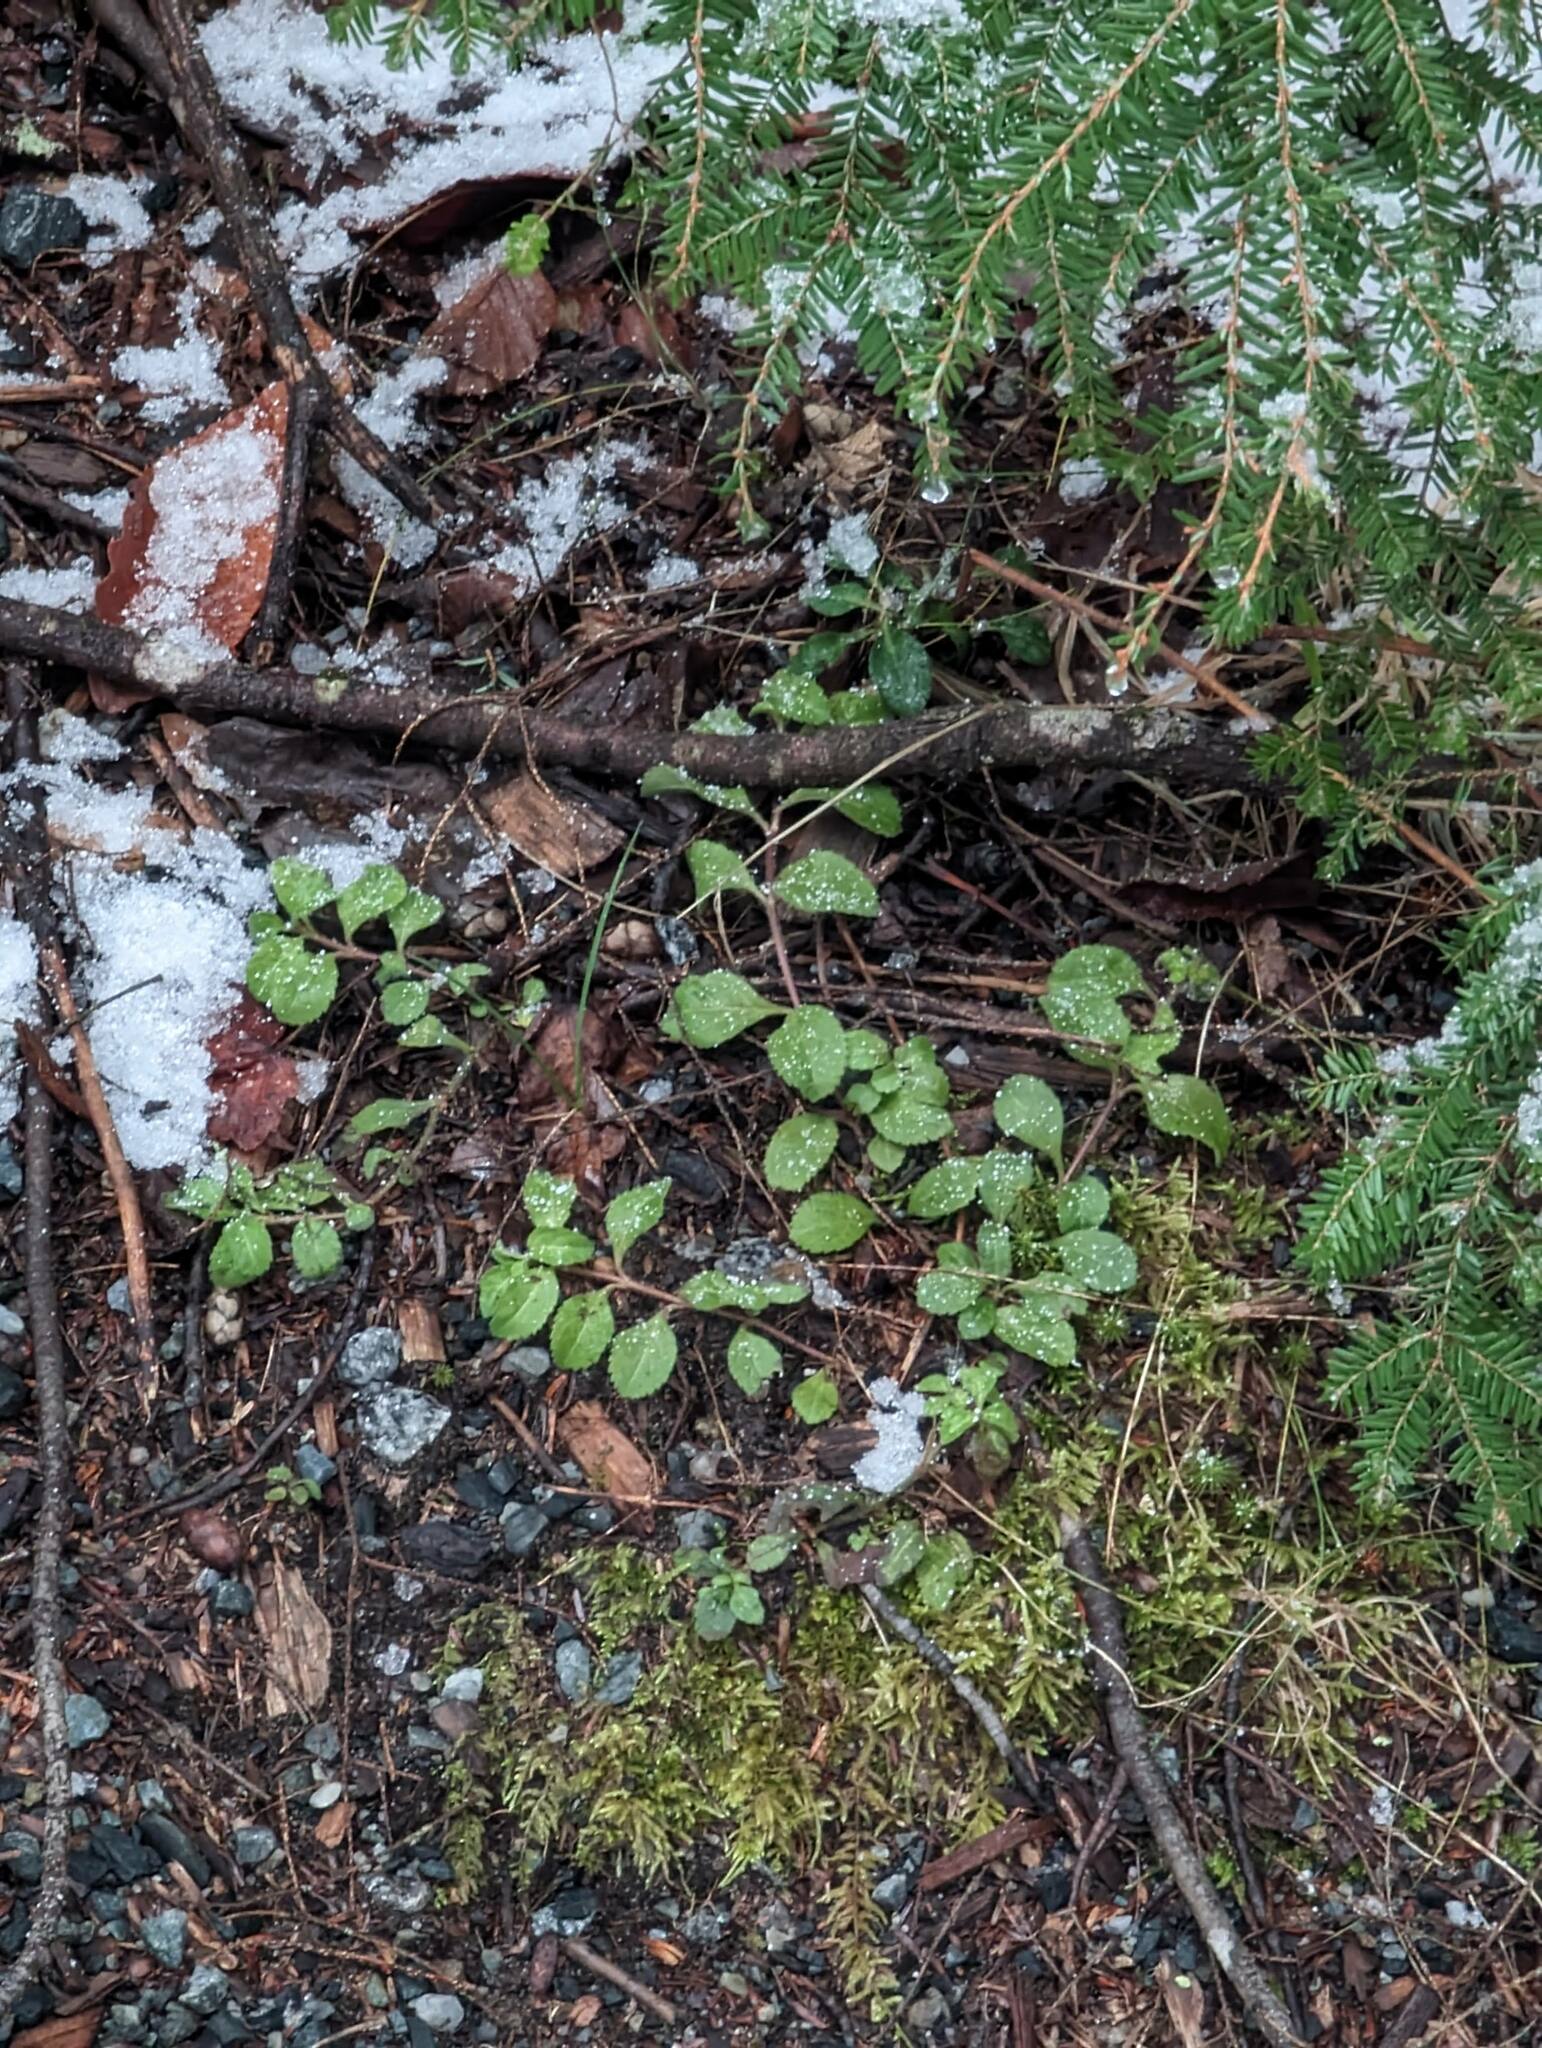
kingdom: Plantae
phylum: Tracheophyta
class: Magnoliopsida
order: Lamiales
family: Plantaginaceae
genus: Veronica
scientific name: Veronica officinalis
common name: Common speedwell
